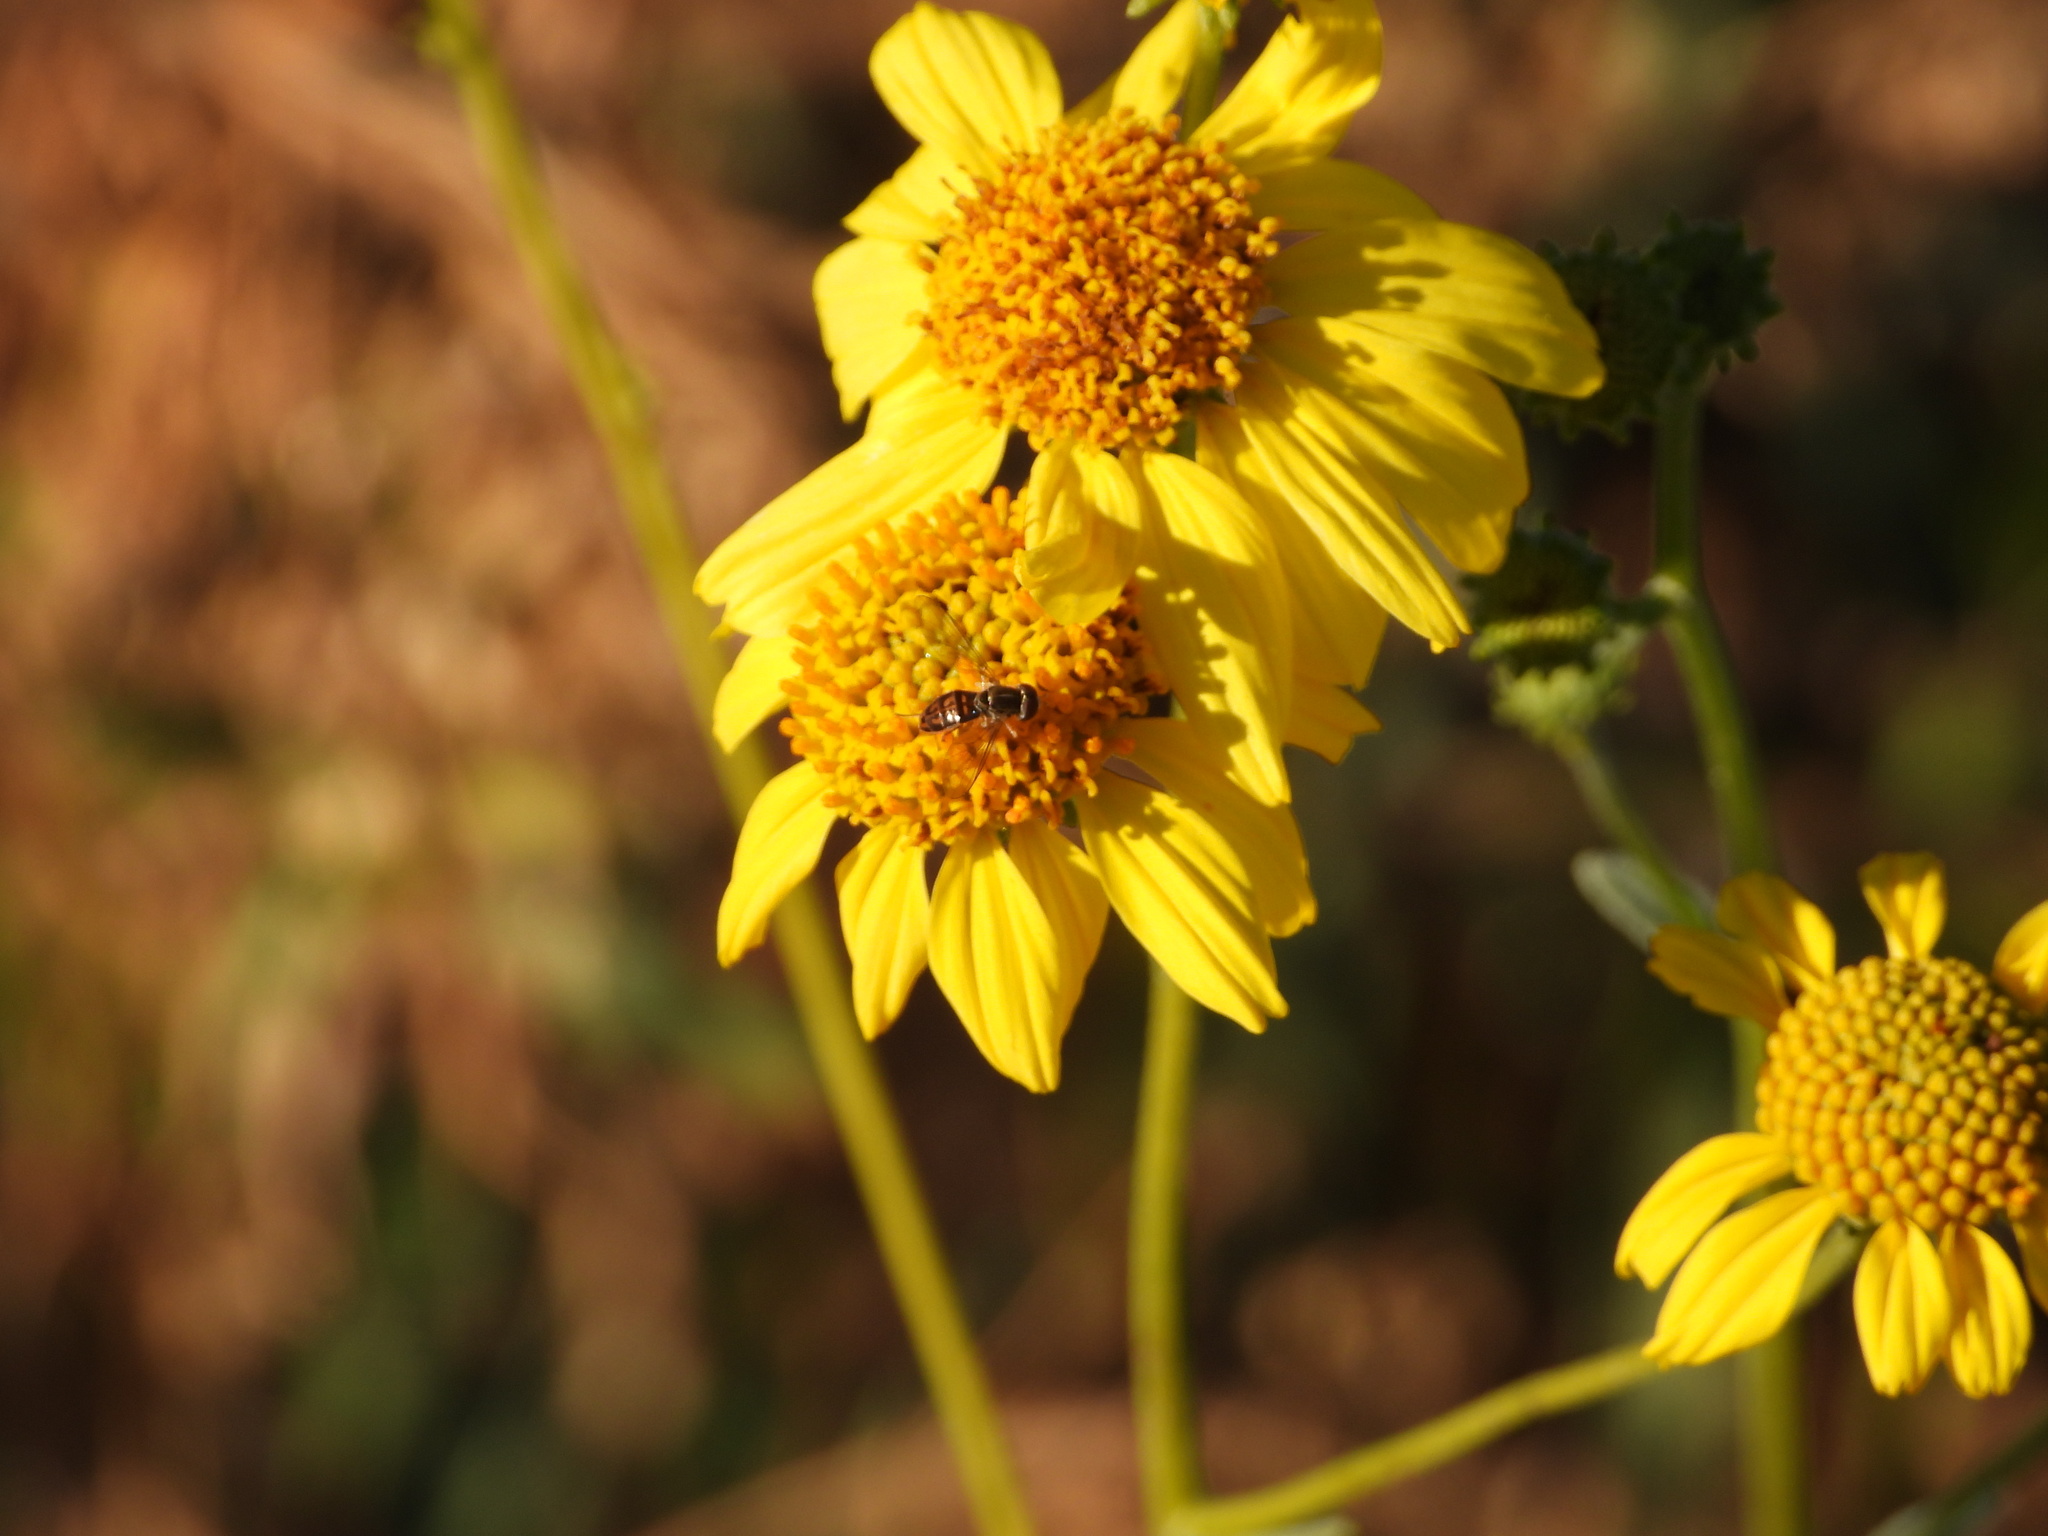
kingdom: Animalia
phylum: Arthropoda
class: Insecta
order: Diptera
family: Syrphidae
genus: Toxomerus
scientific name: Toxomerus marginatus
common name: Syrphid fly
